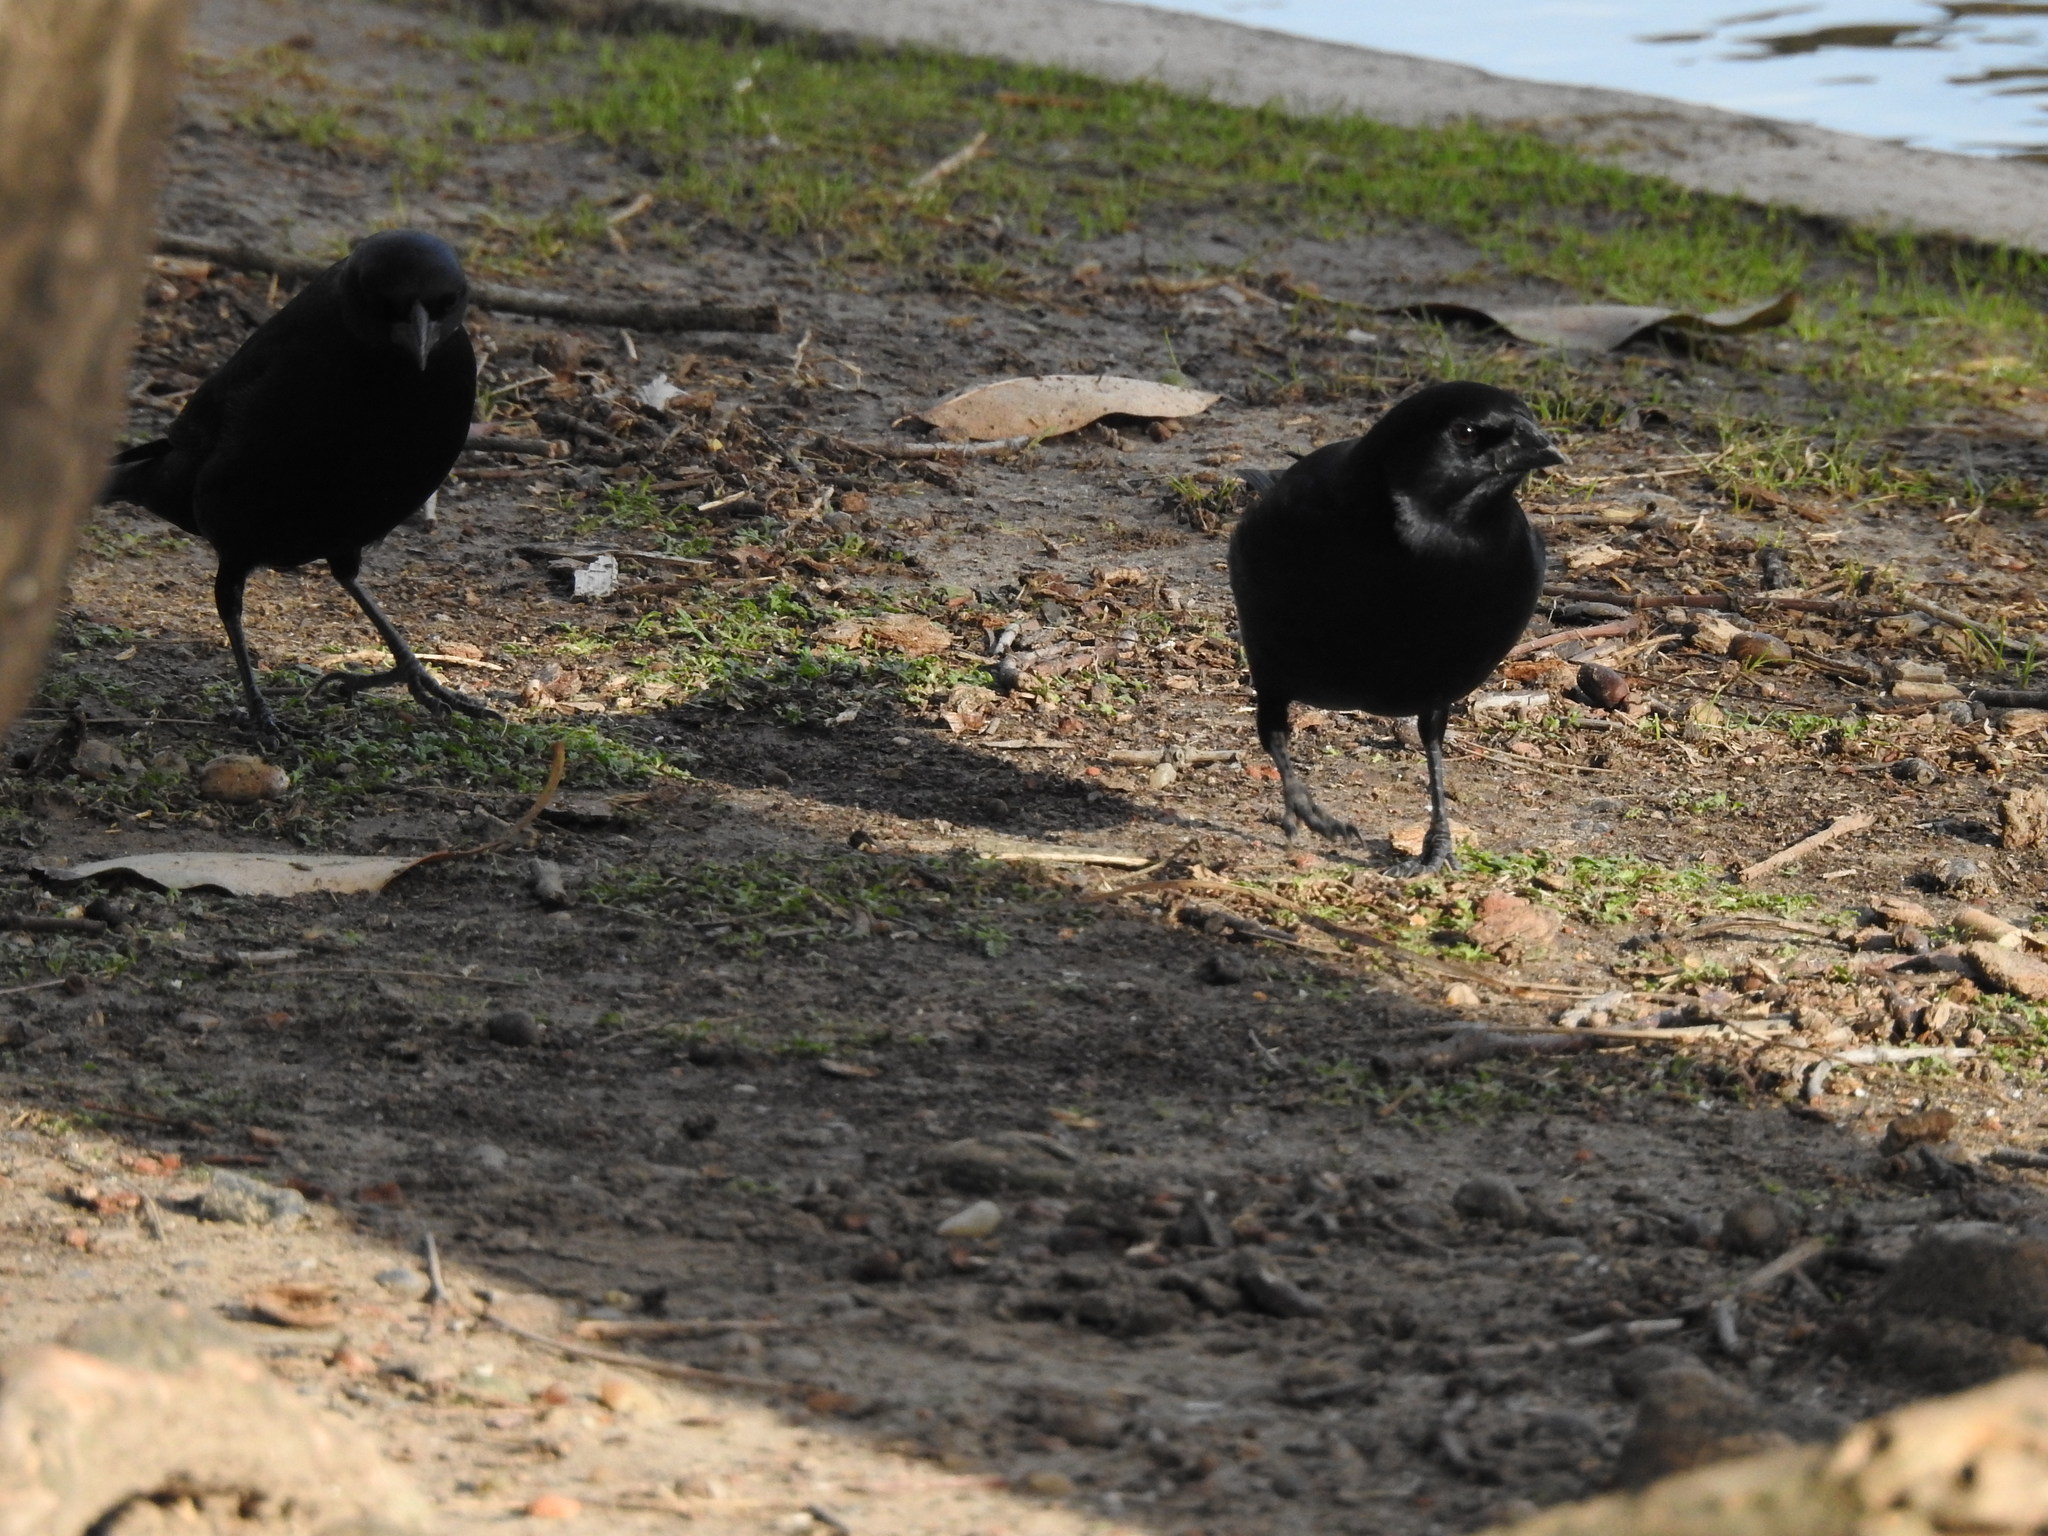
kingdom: Animalia
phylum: Chordata
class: Aves
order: Passeriformes
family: Icteridae
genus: Molothrus
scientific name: Molothrus rufoaxillaris
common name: Screaming cowbird
